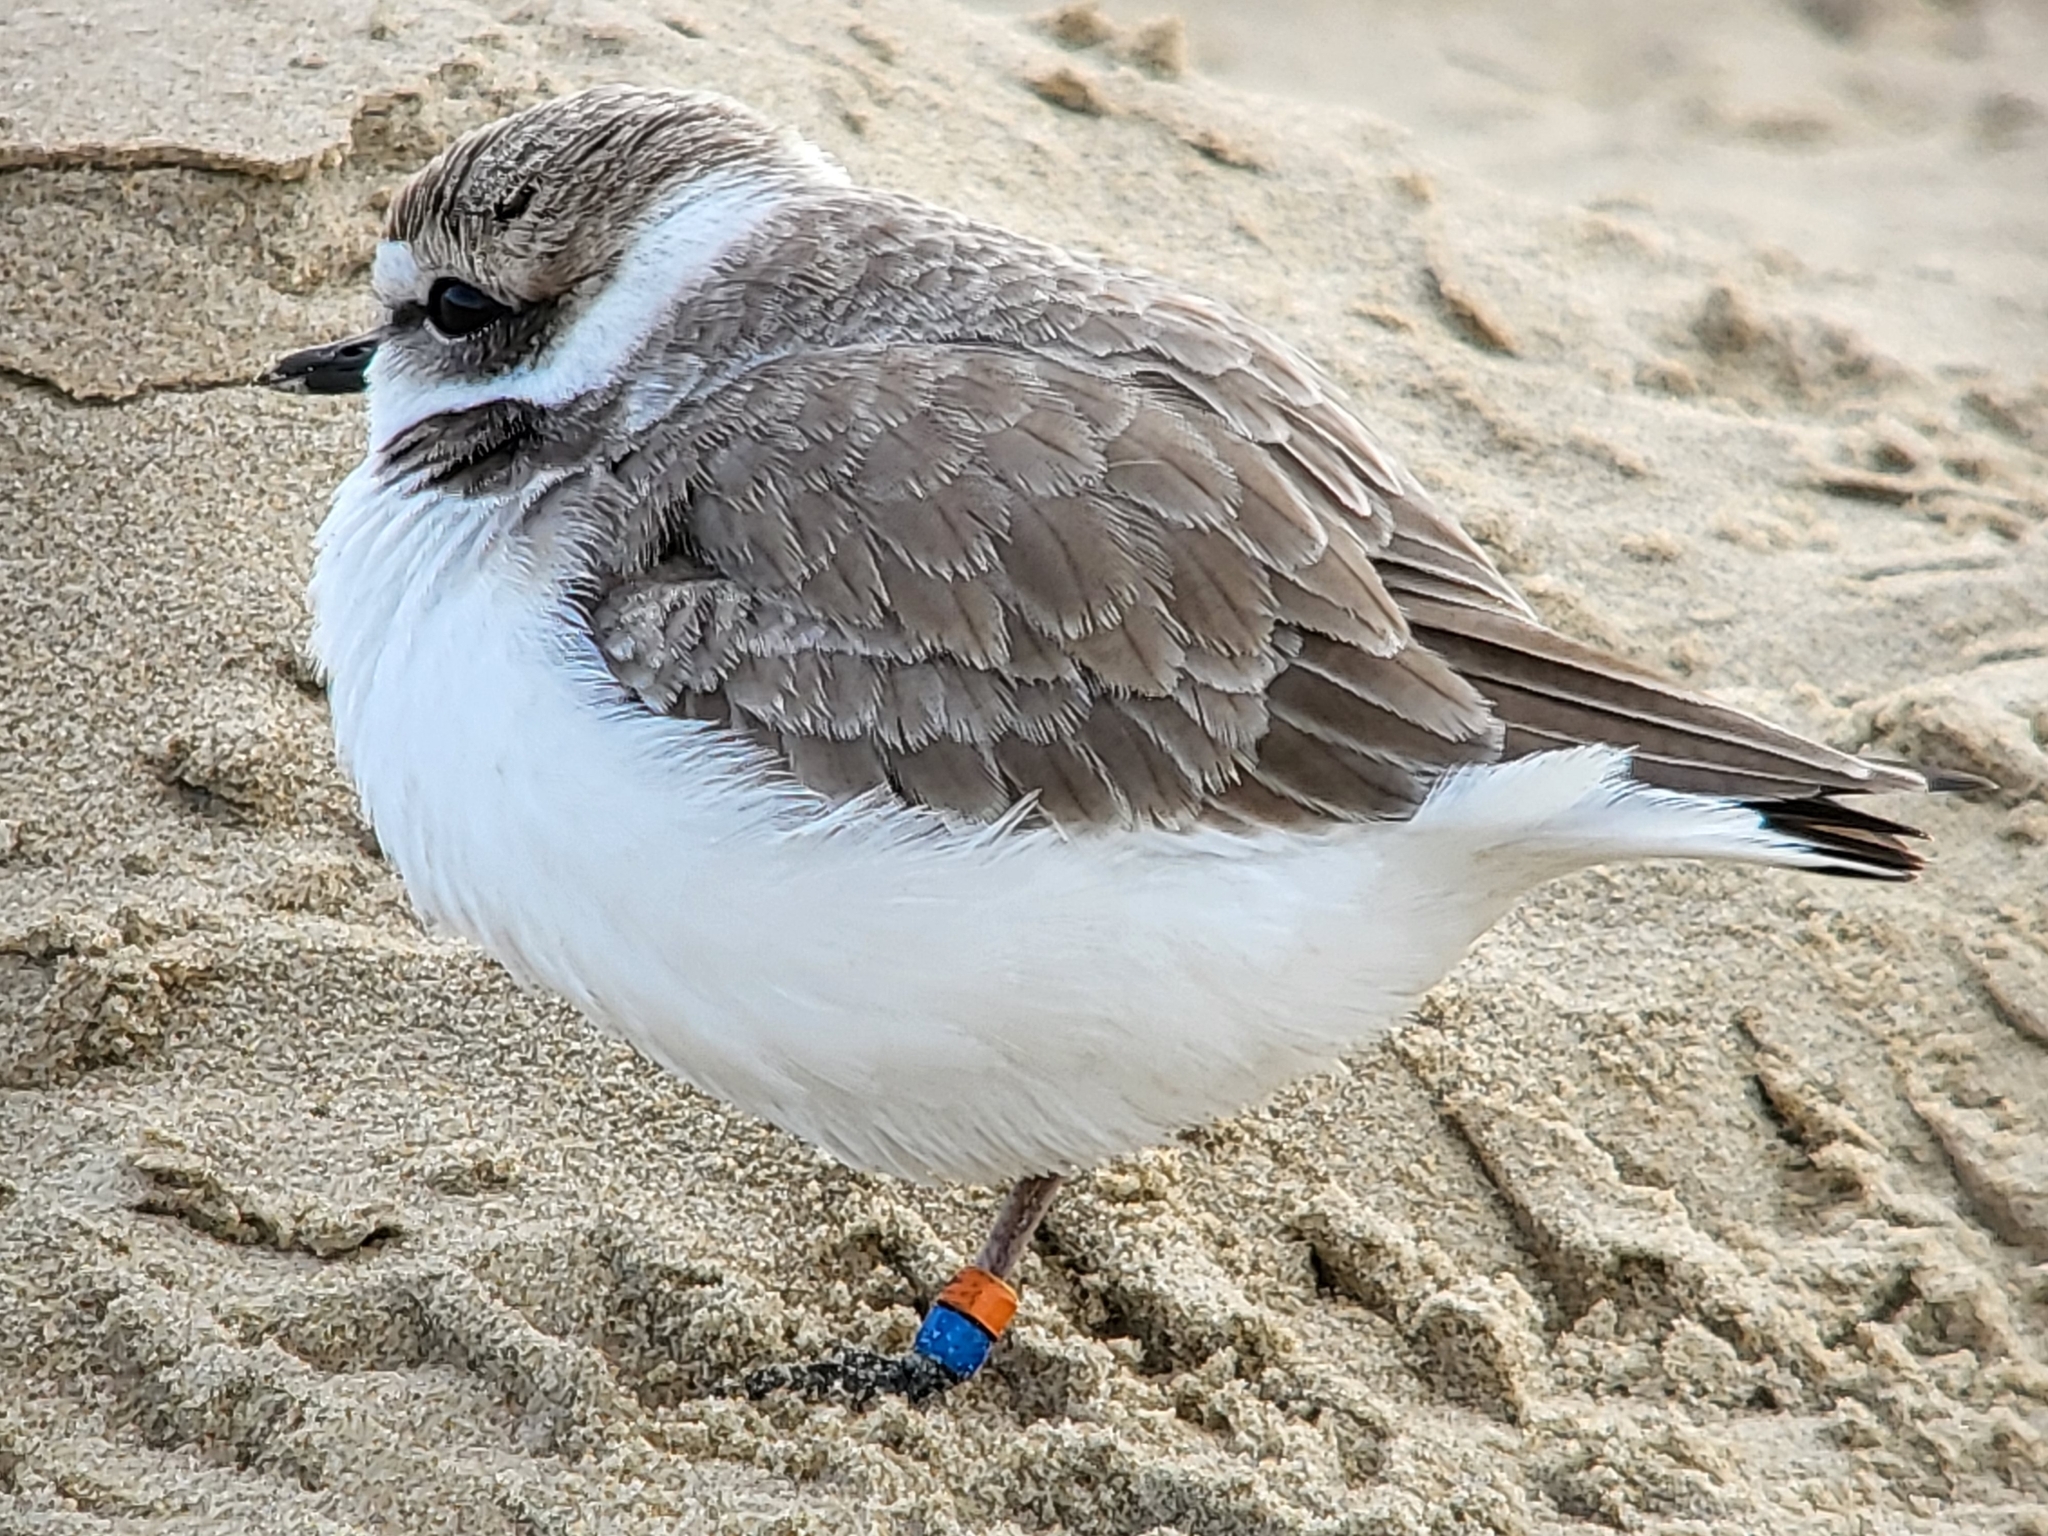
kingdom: Animalia
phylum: Chordata
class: Aves
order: Charadriiformes
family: Charadriidae
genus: Anarhynchus
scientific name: Anarhynchus
